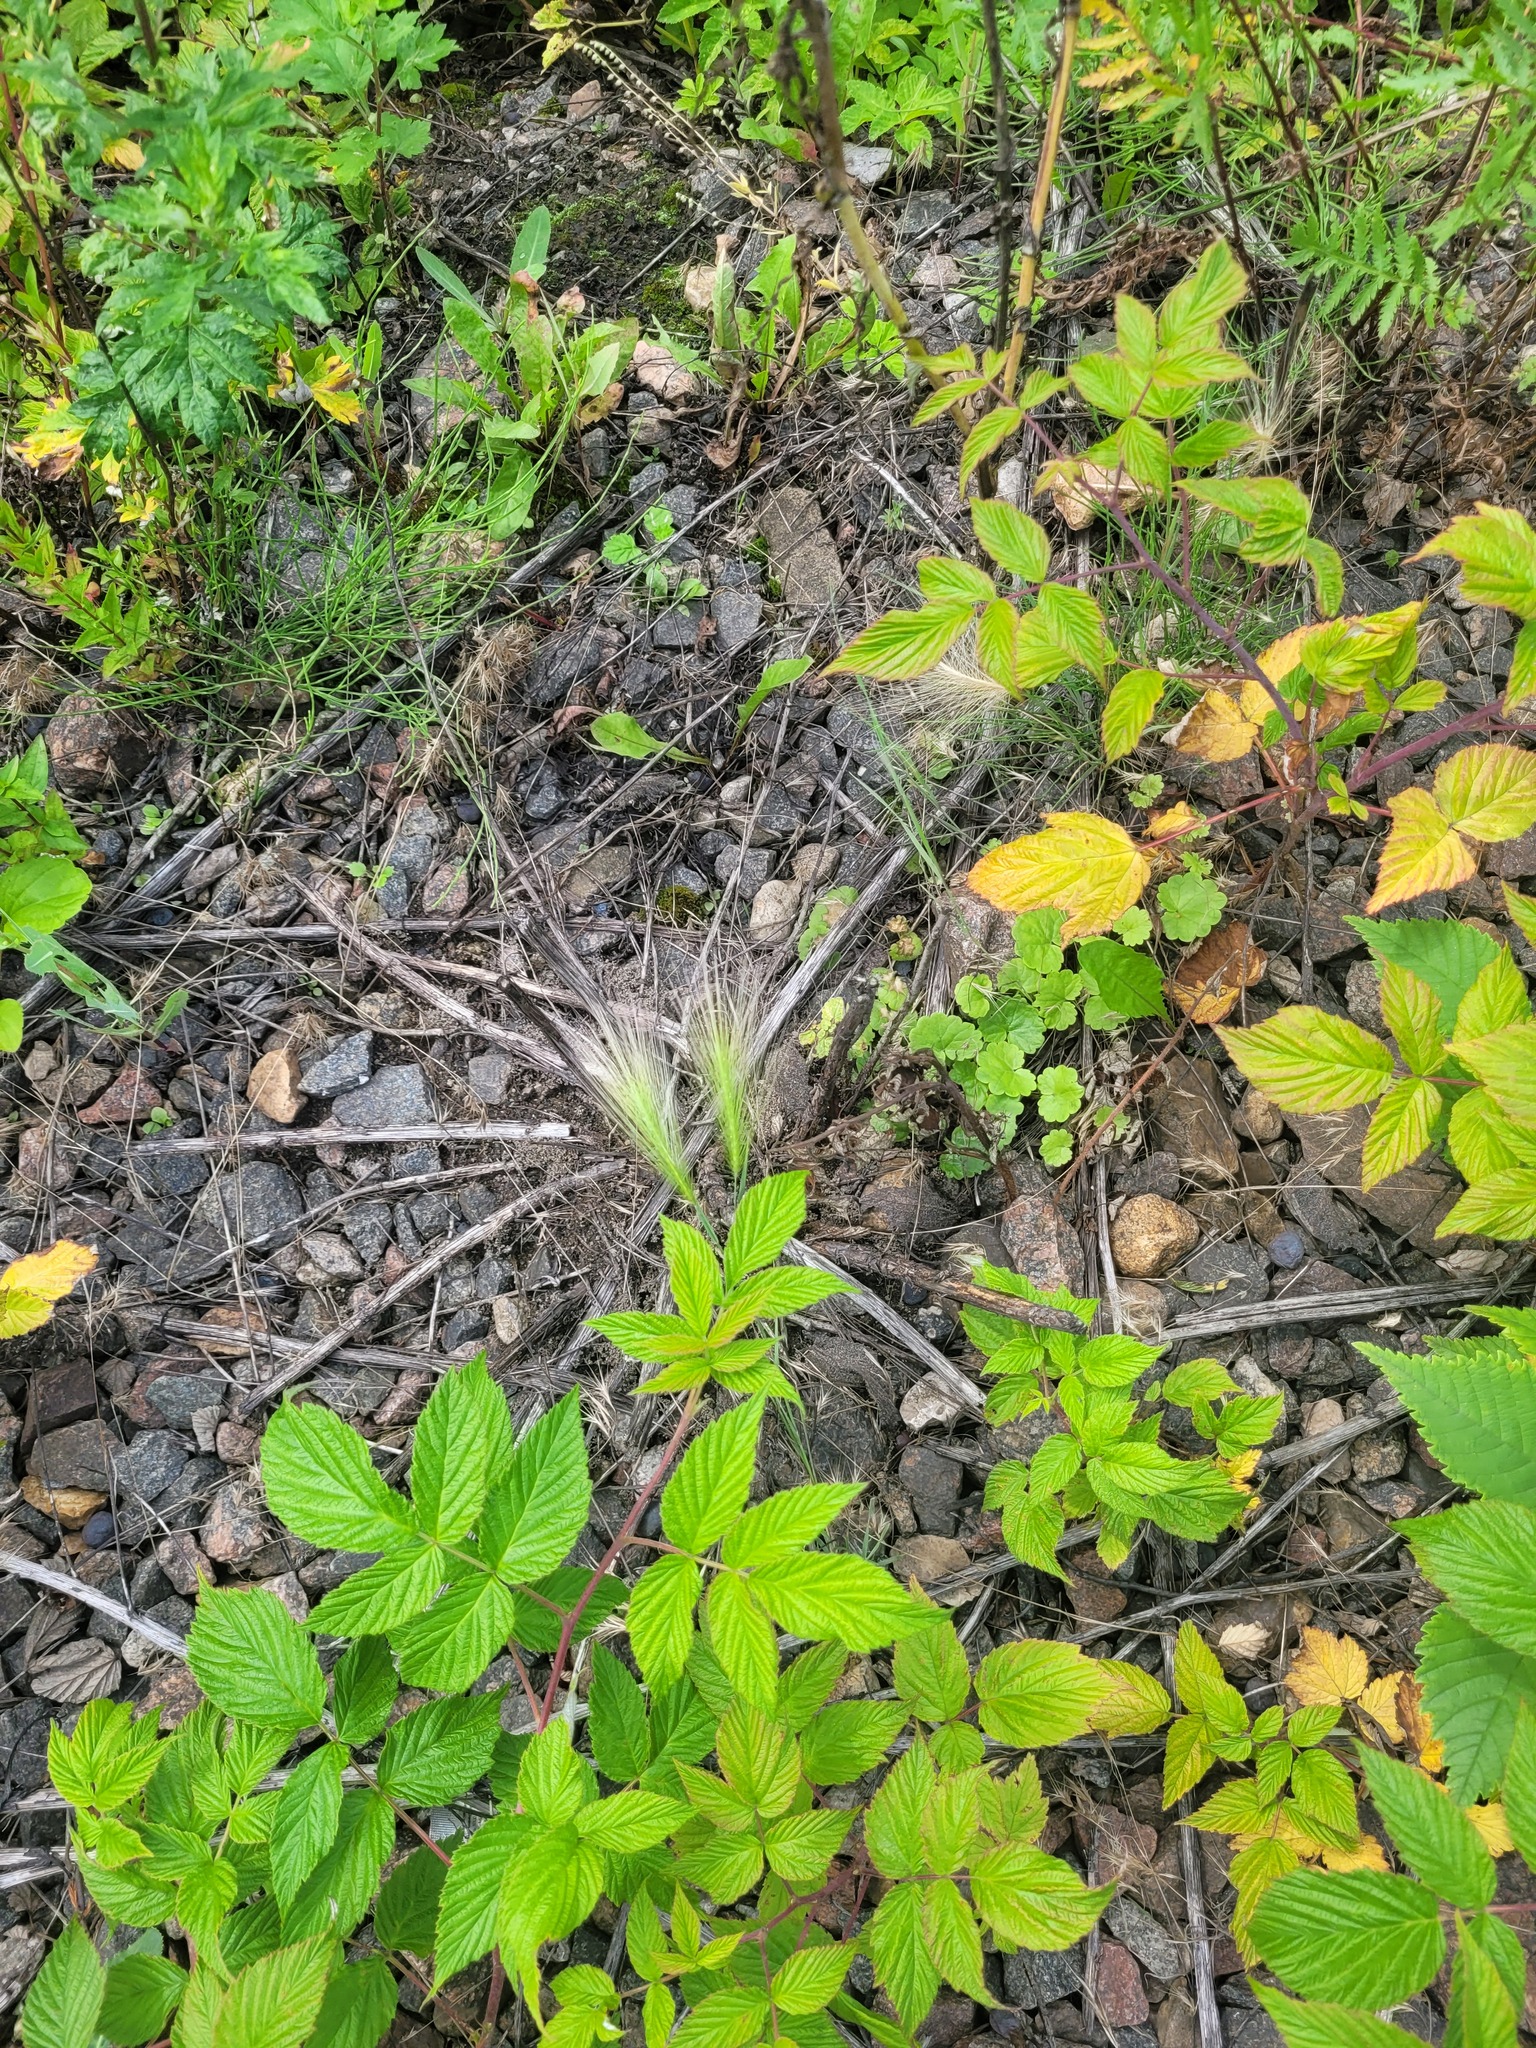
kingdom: Plantae
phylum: Tracheophyta
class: Liliopsida
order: Poales
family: Poaceae
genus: Hordeum
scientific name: Hordeum jubatum
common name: Foxtail barley
